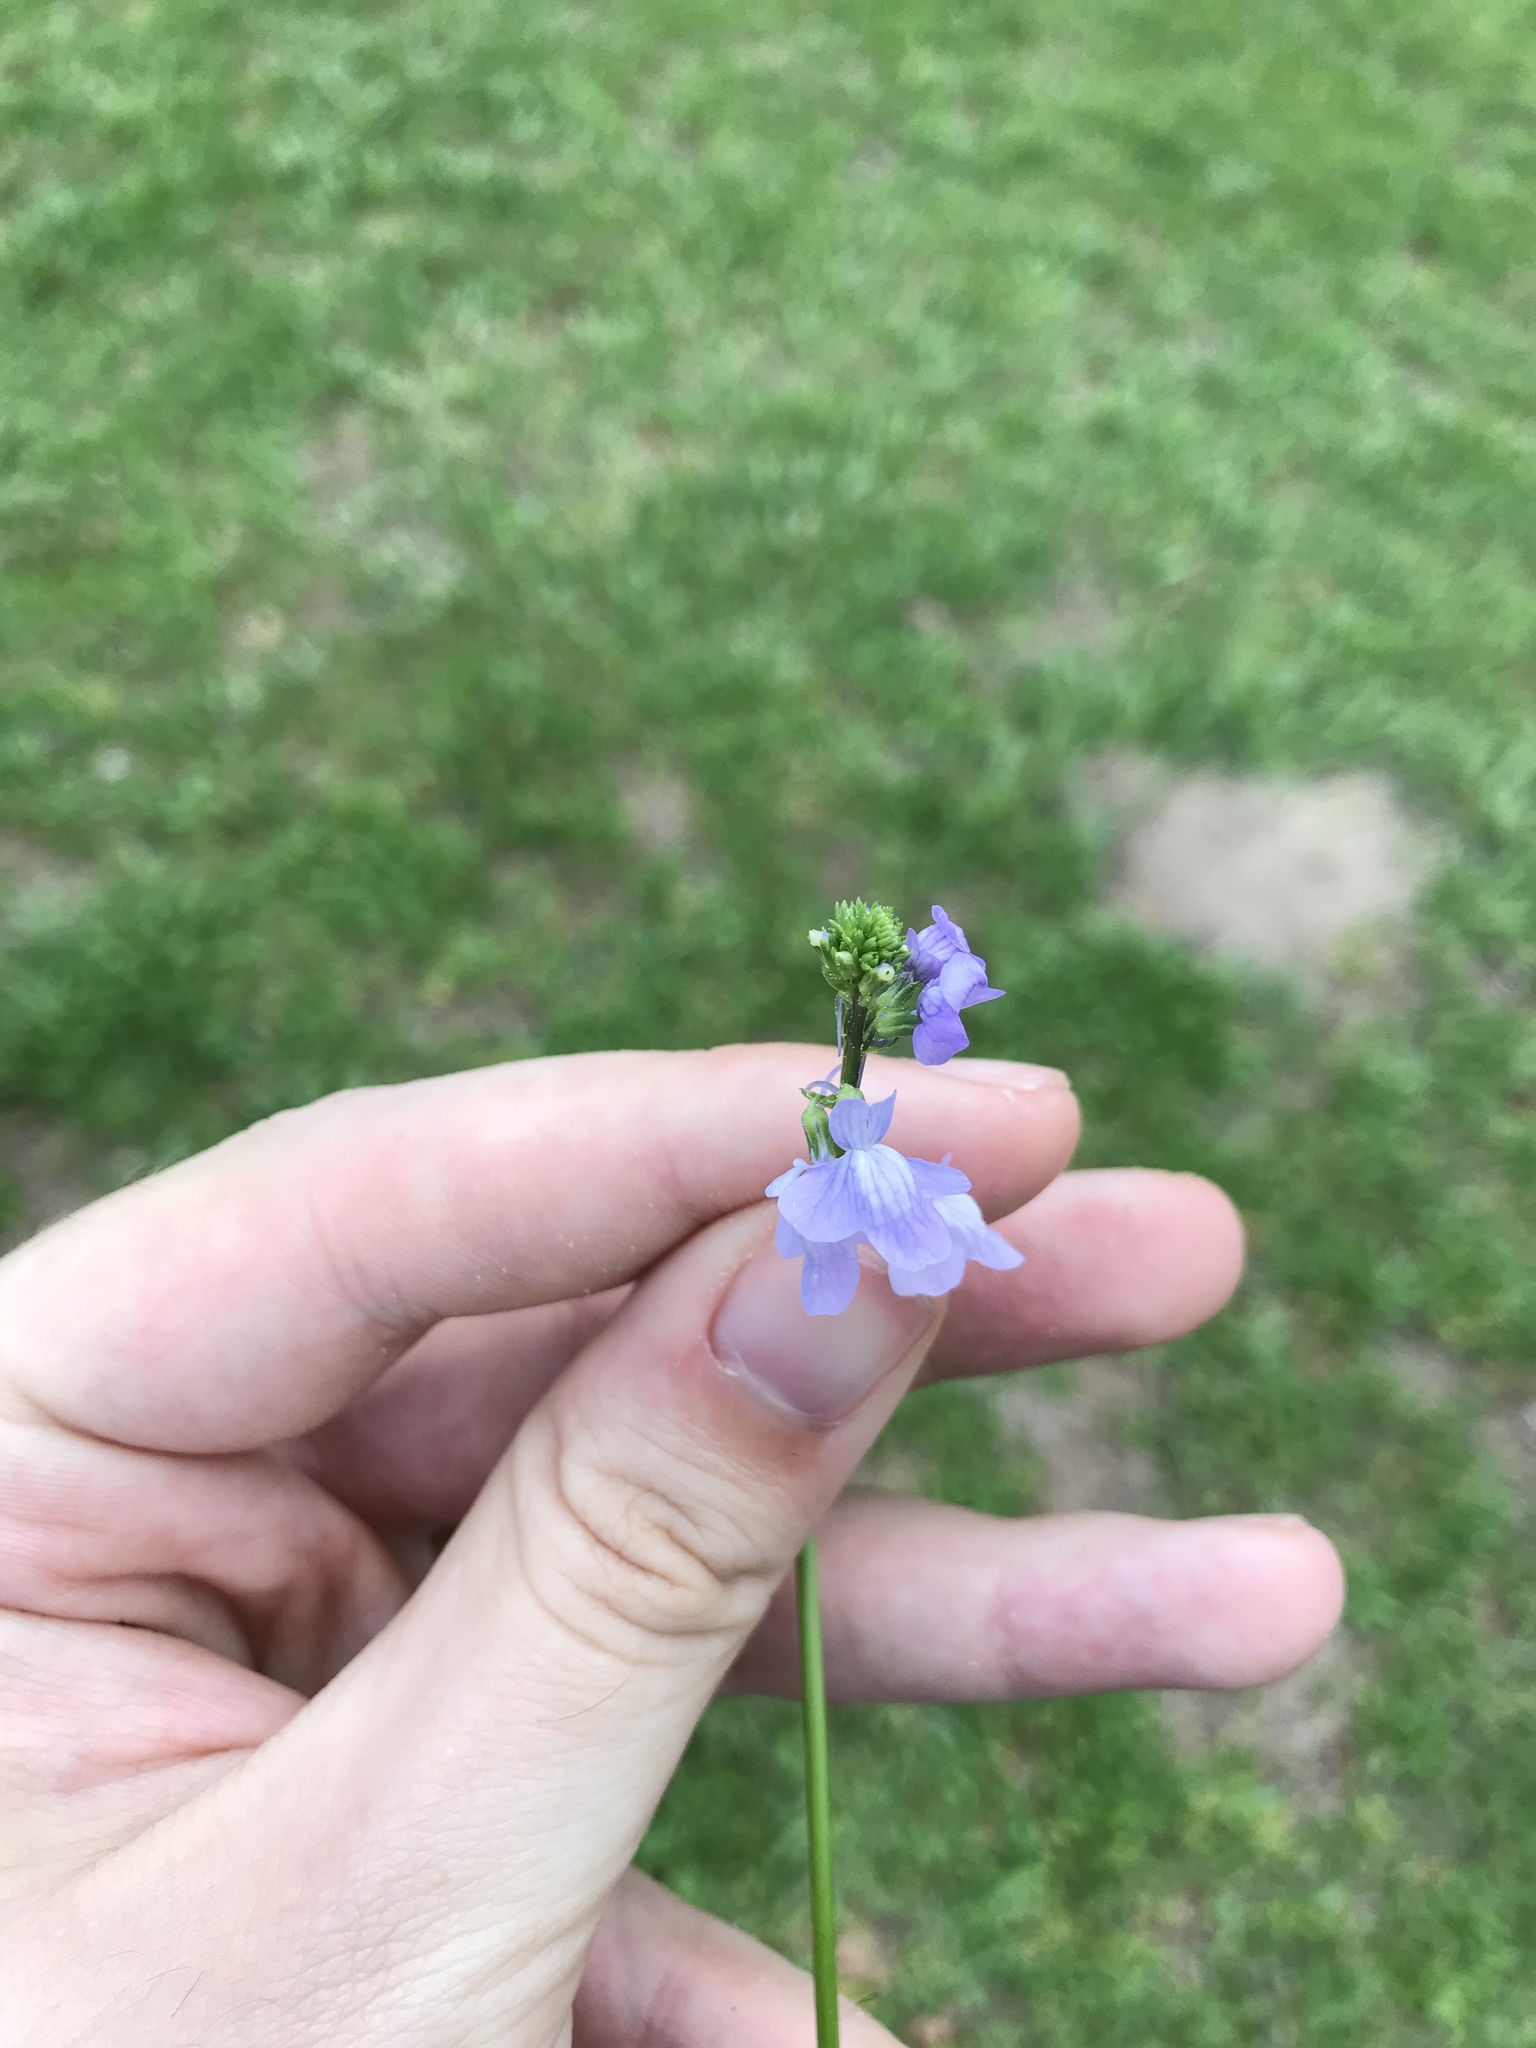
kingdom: Plantae
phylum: Tracheophyta
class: Magnoliopsida
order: Lamiales
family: Plantaginaceae
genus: Nuttallanthus
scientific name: Nuttallanthus texanus
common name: Texas toadflax
